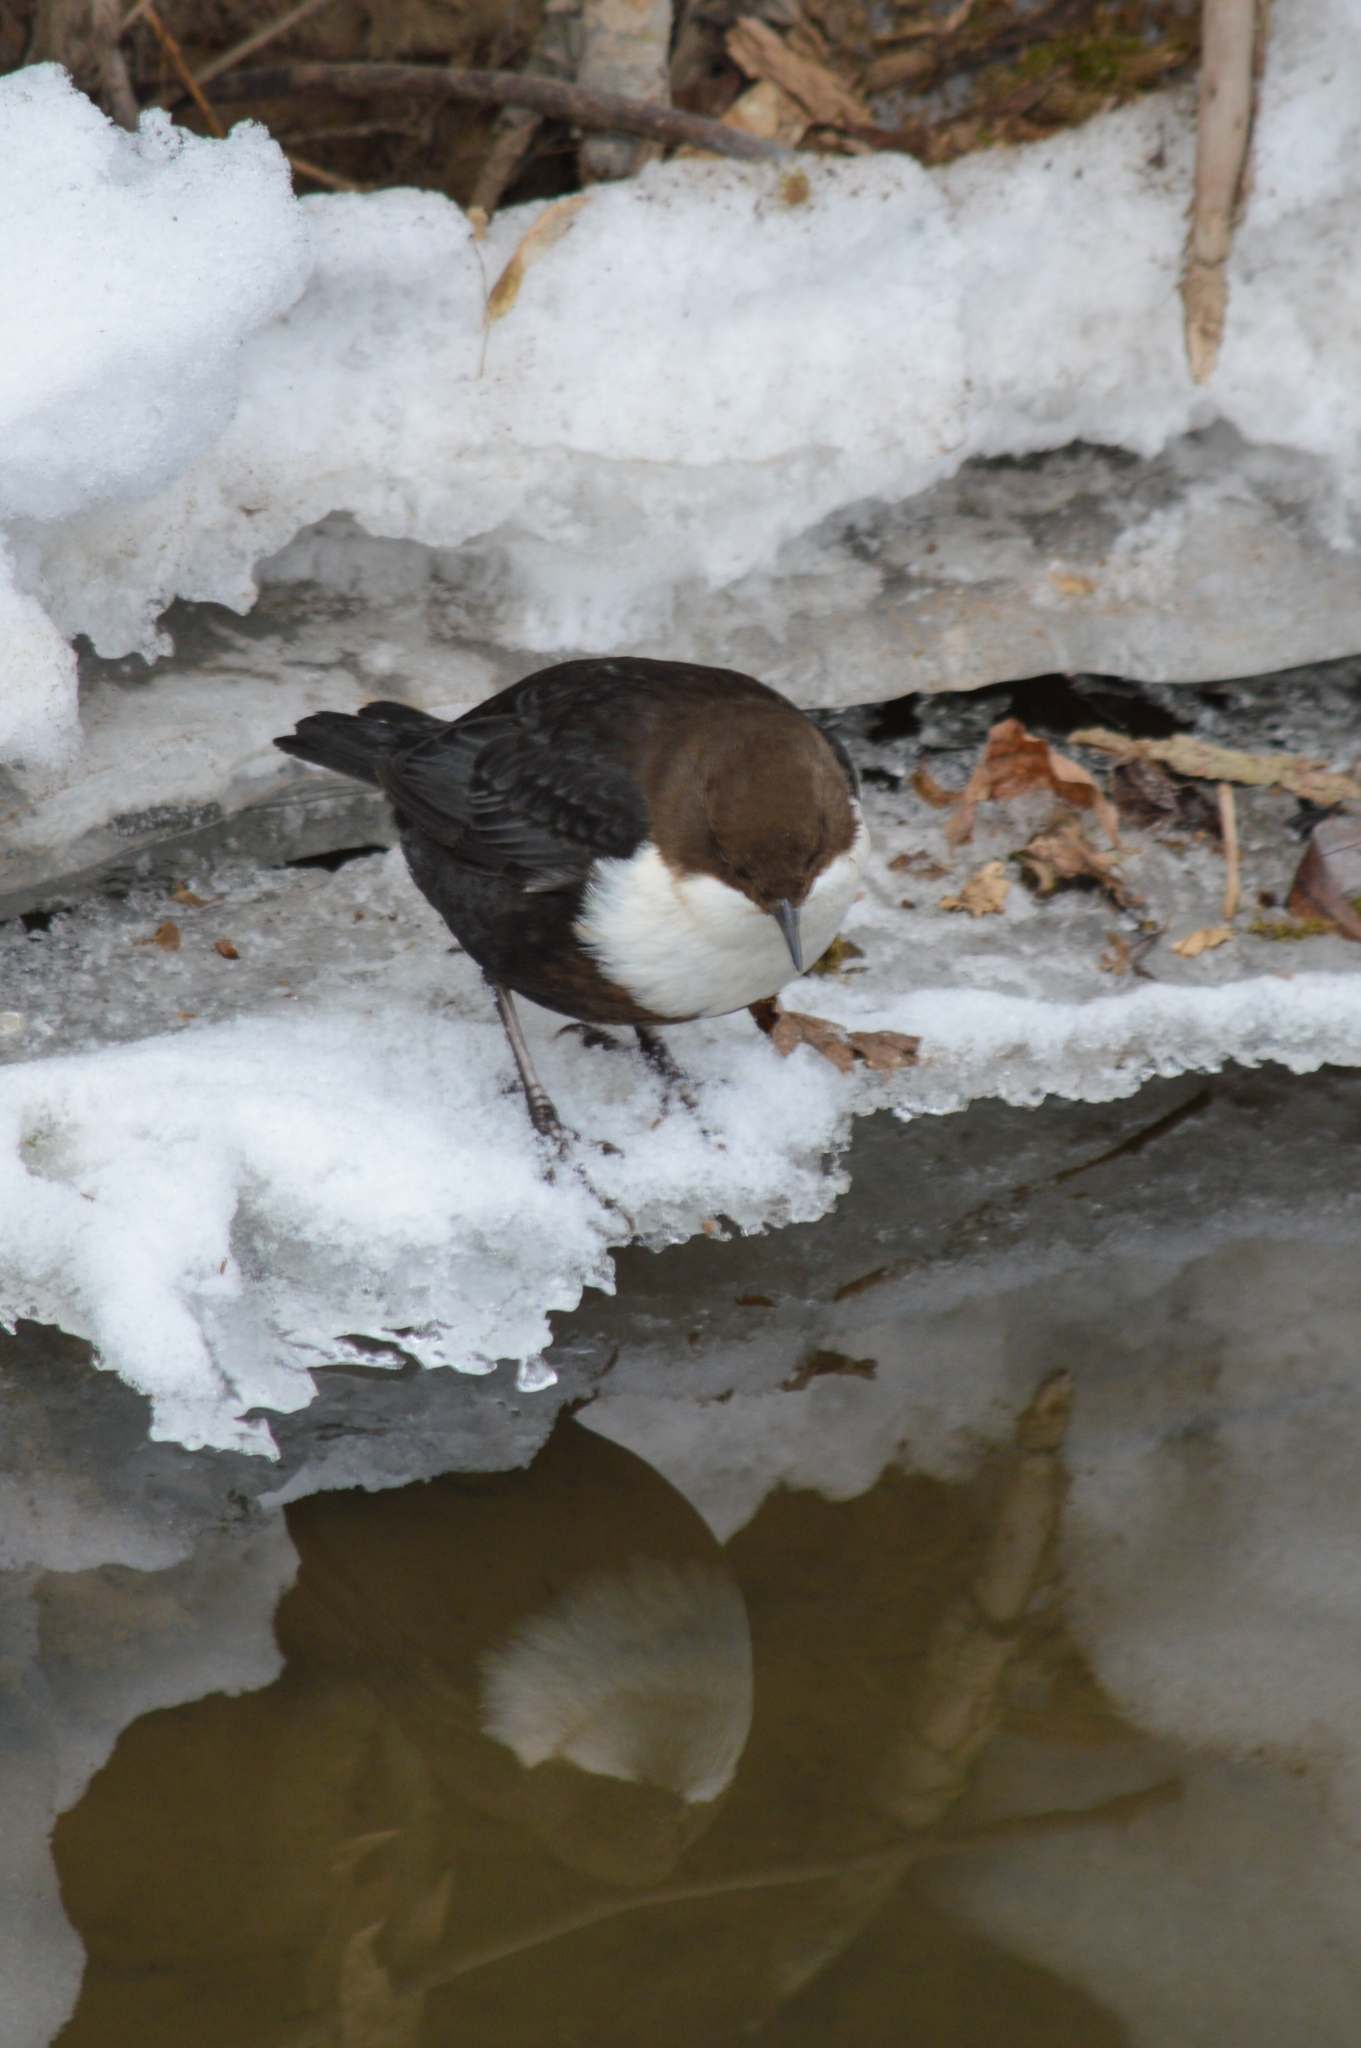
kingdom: Animalia
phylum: Chordata
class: Aves
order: Passeriformes
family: Cinclidae
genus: Cinclus
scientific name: Cinclus cinclus
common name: White-throated dipper
